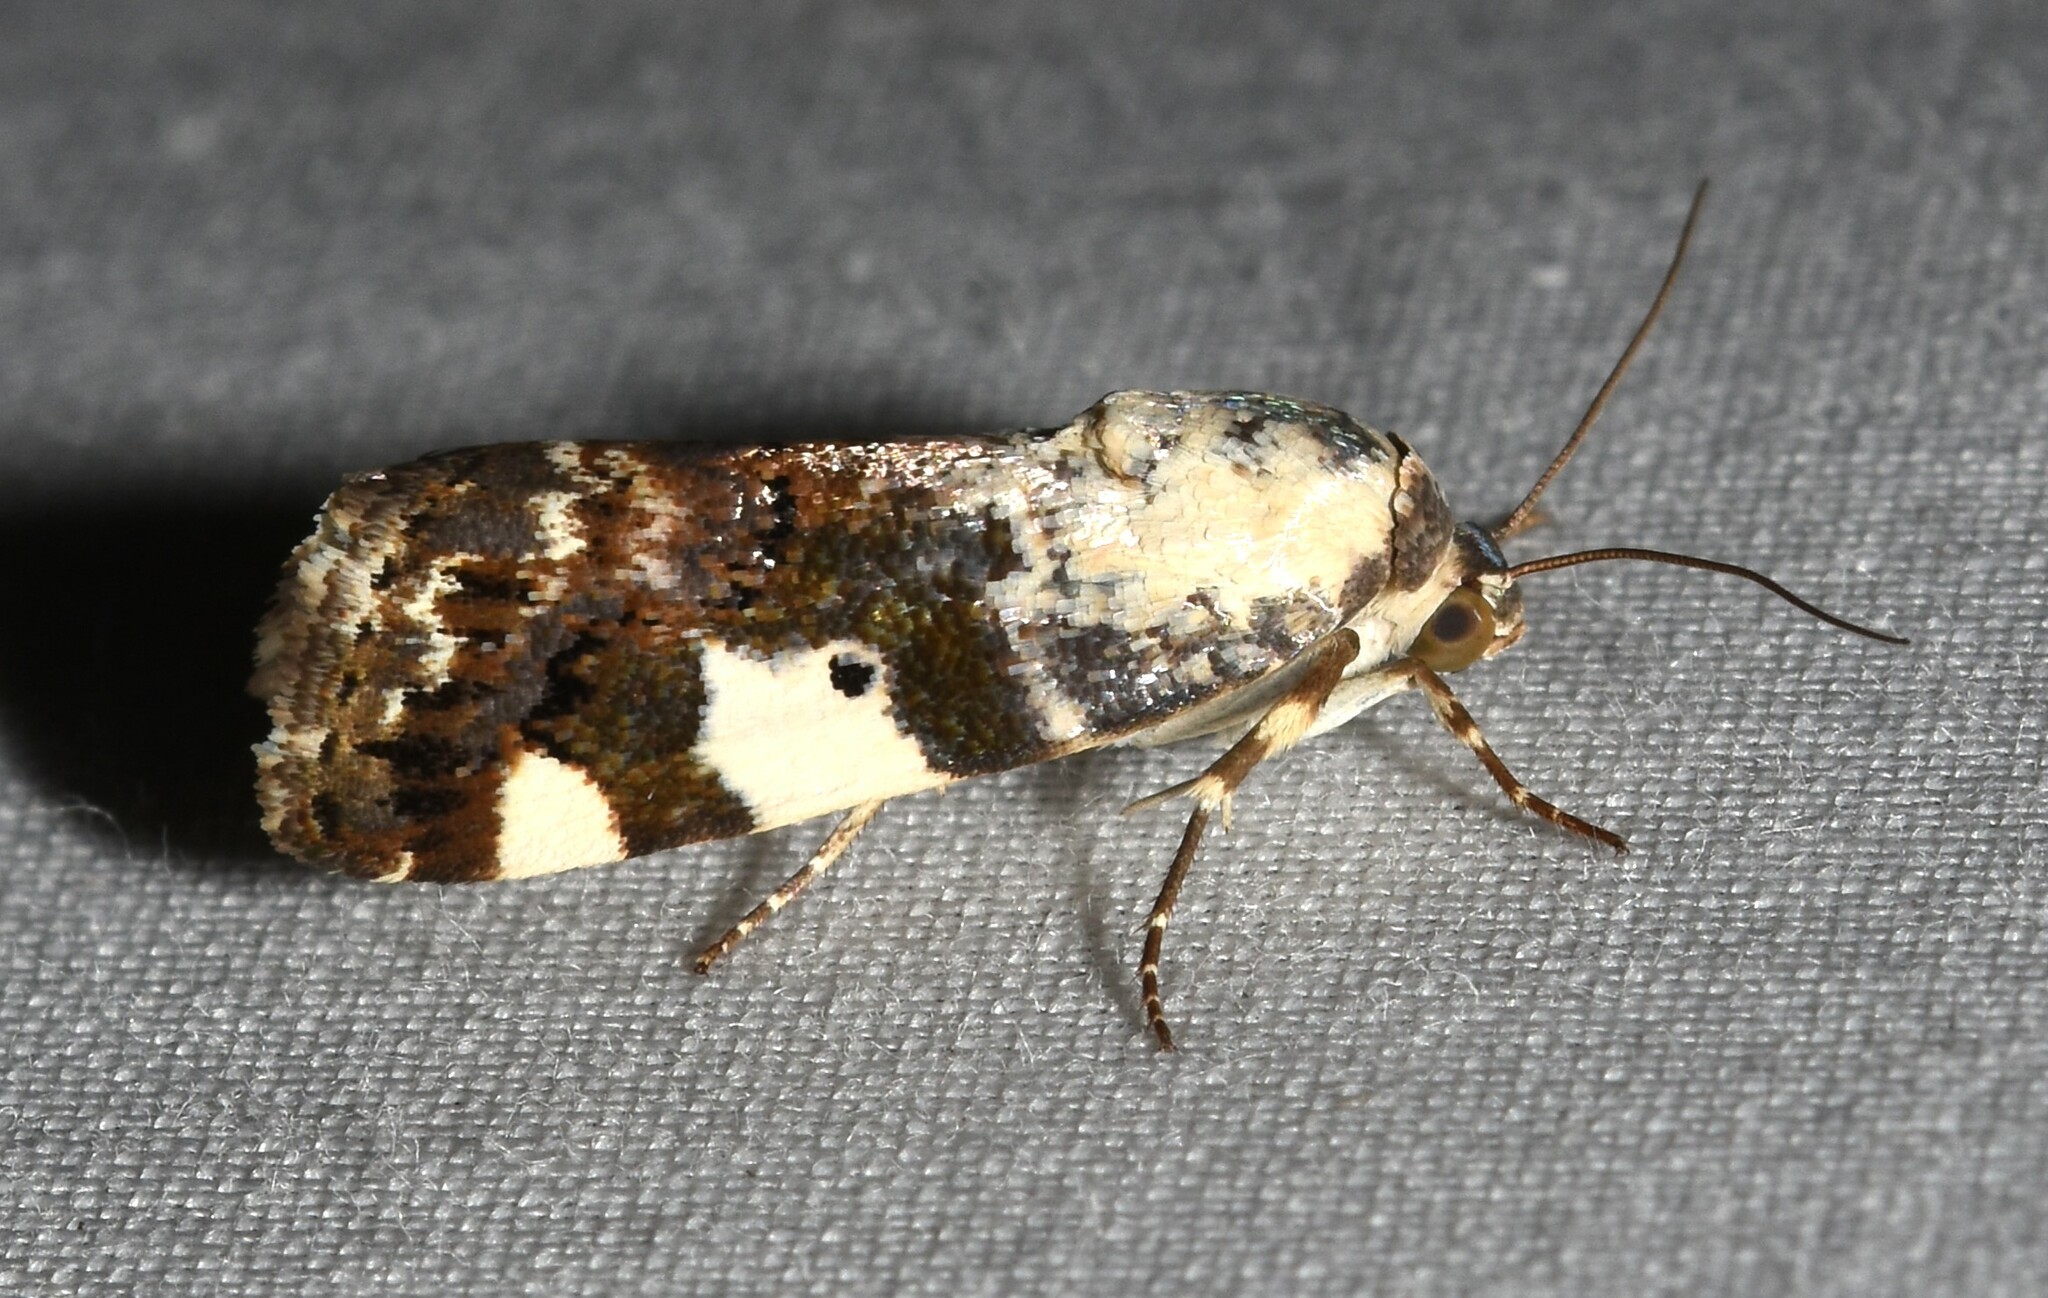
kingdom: Animalia
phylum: Arthropoda
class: Insecta
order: Lepidoptera
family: Noctuidae
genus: Acontia
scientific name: Acontia aprica
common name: Nun
